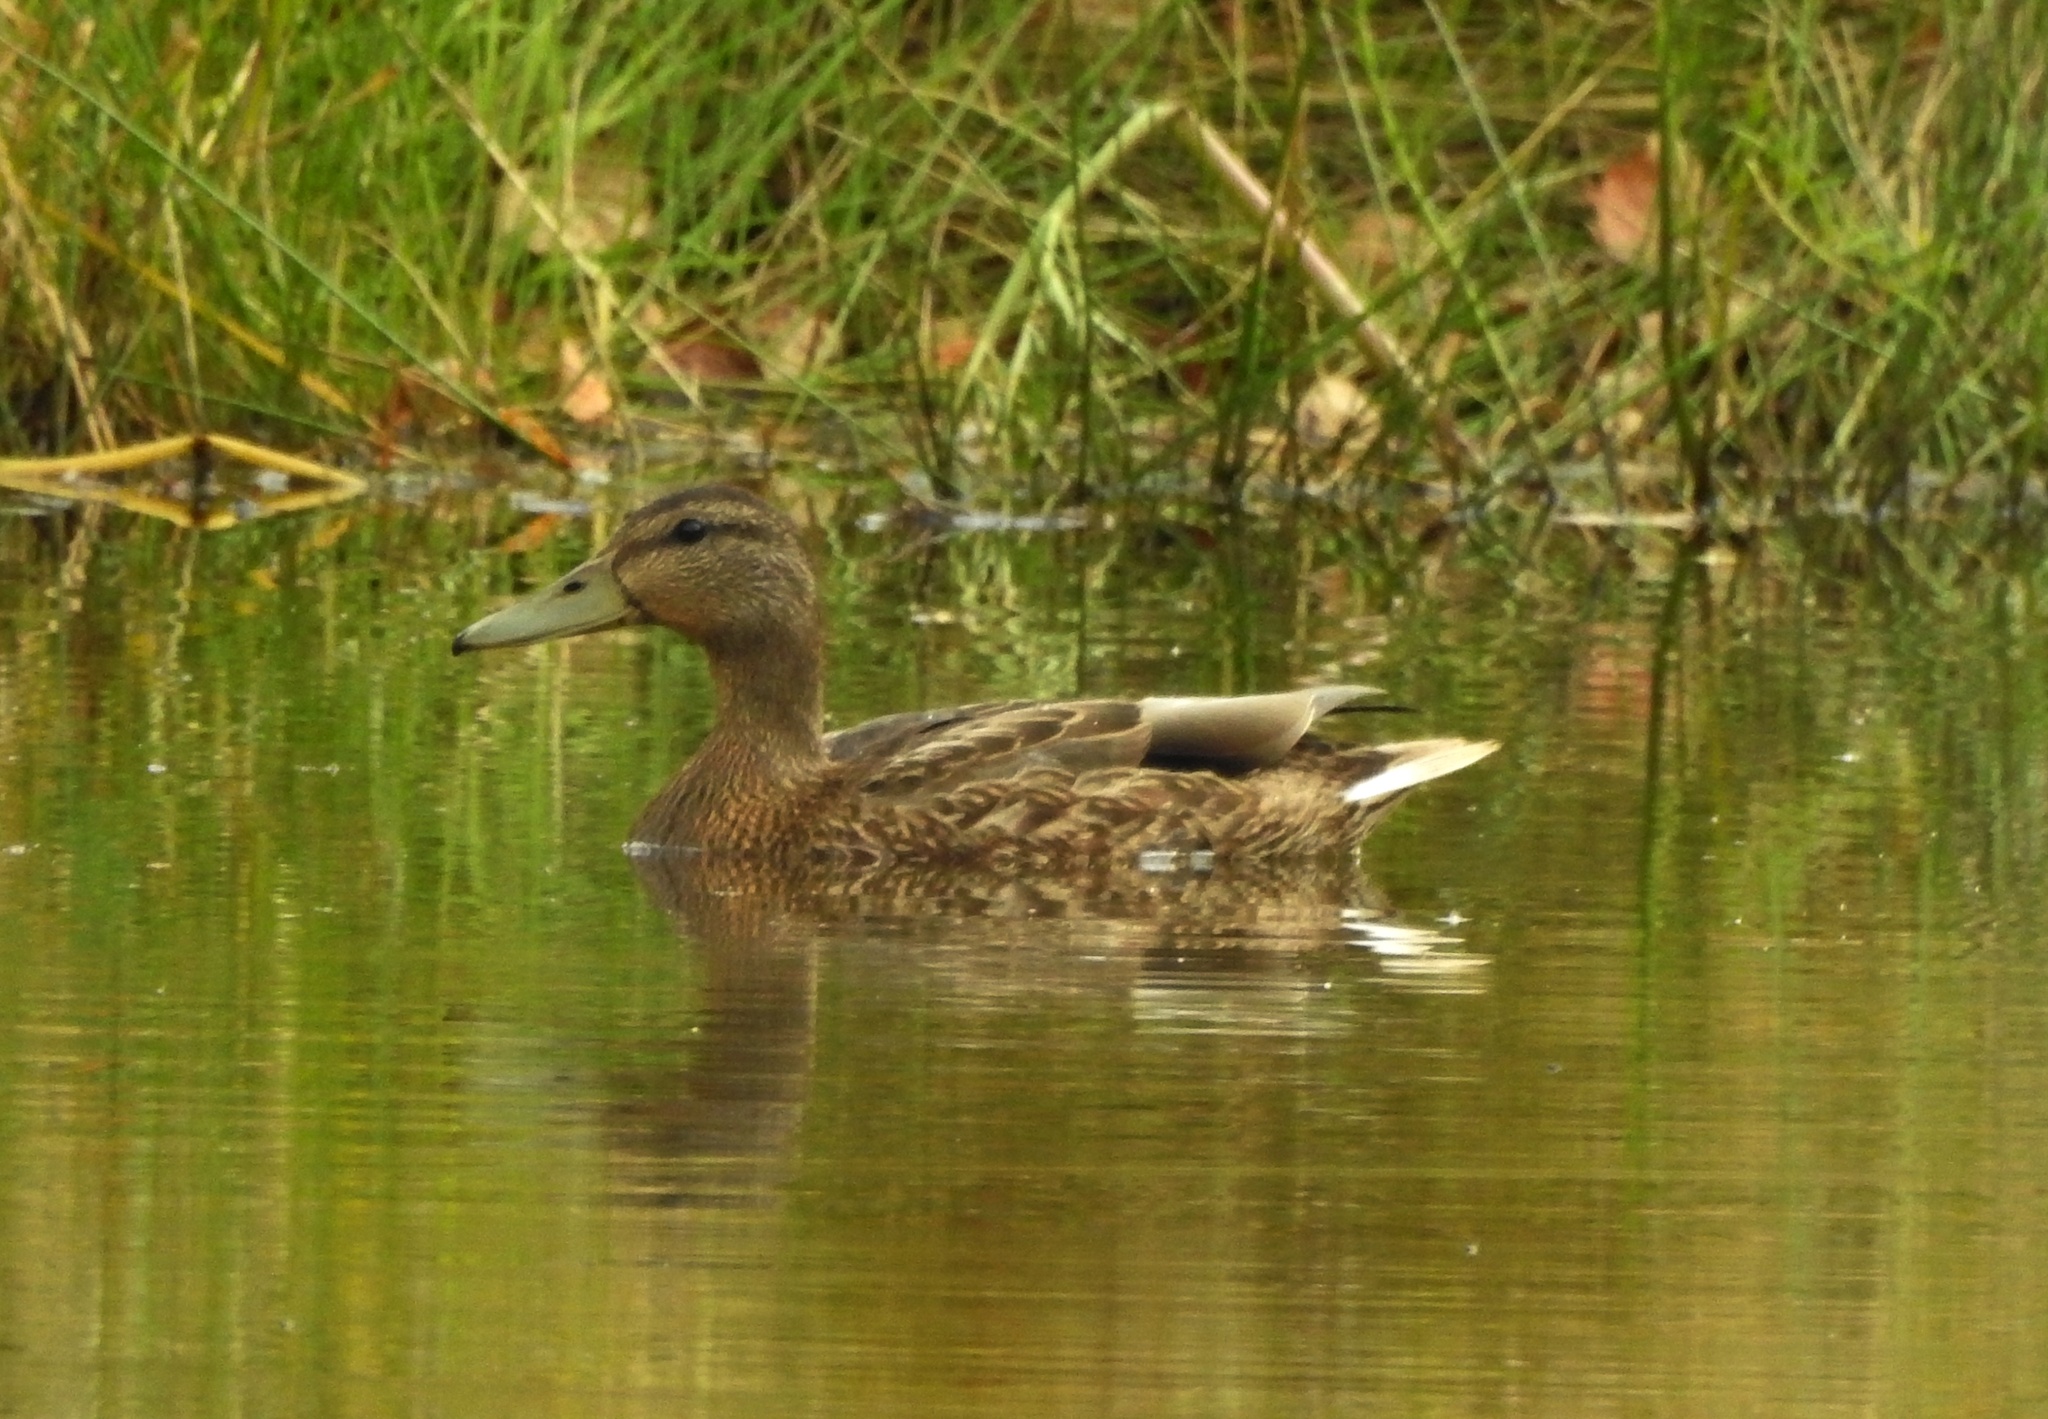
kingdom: Animalia
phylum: Chordata
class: Aves
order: Anseriformes
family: Anatidae
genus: Anas
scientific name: Anas platyrhynchos
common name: Mallard
